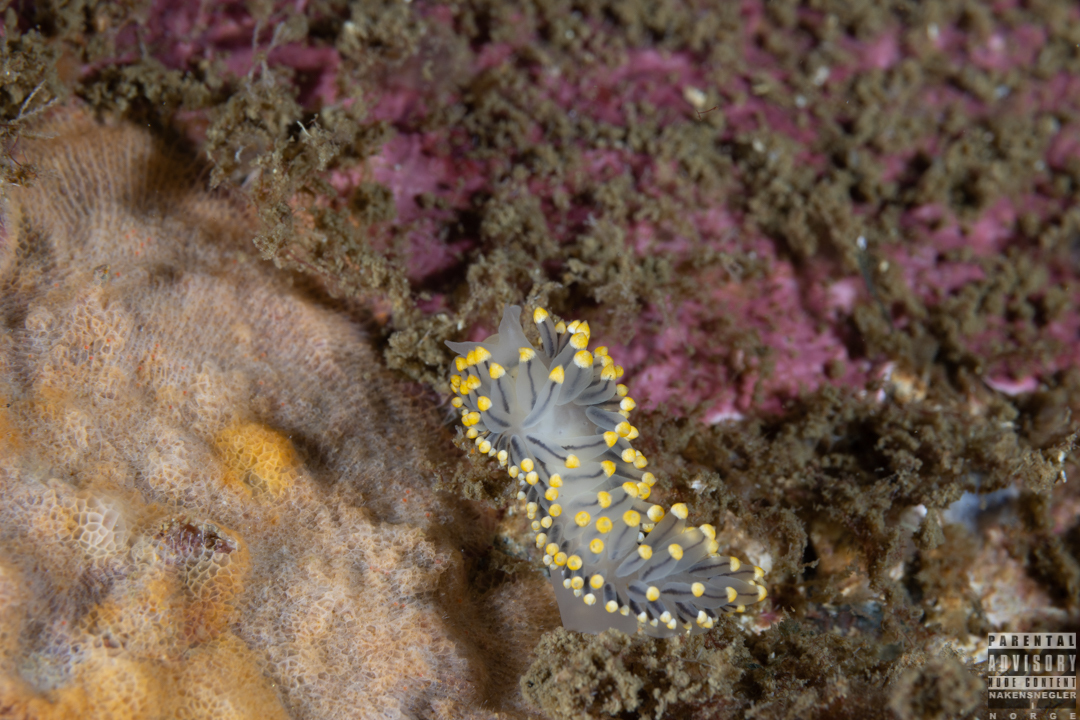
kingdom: Animalia
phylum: Mollusca
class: Gastropoda
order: Nudibranchia
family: Eubranchidae
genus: Eubranchus
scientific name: Eubranchus tricolor
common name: Painted balloon aeolis
